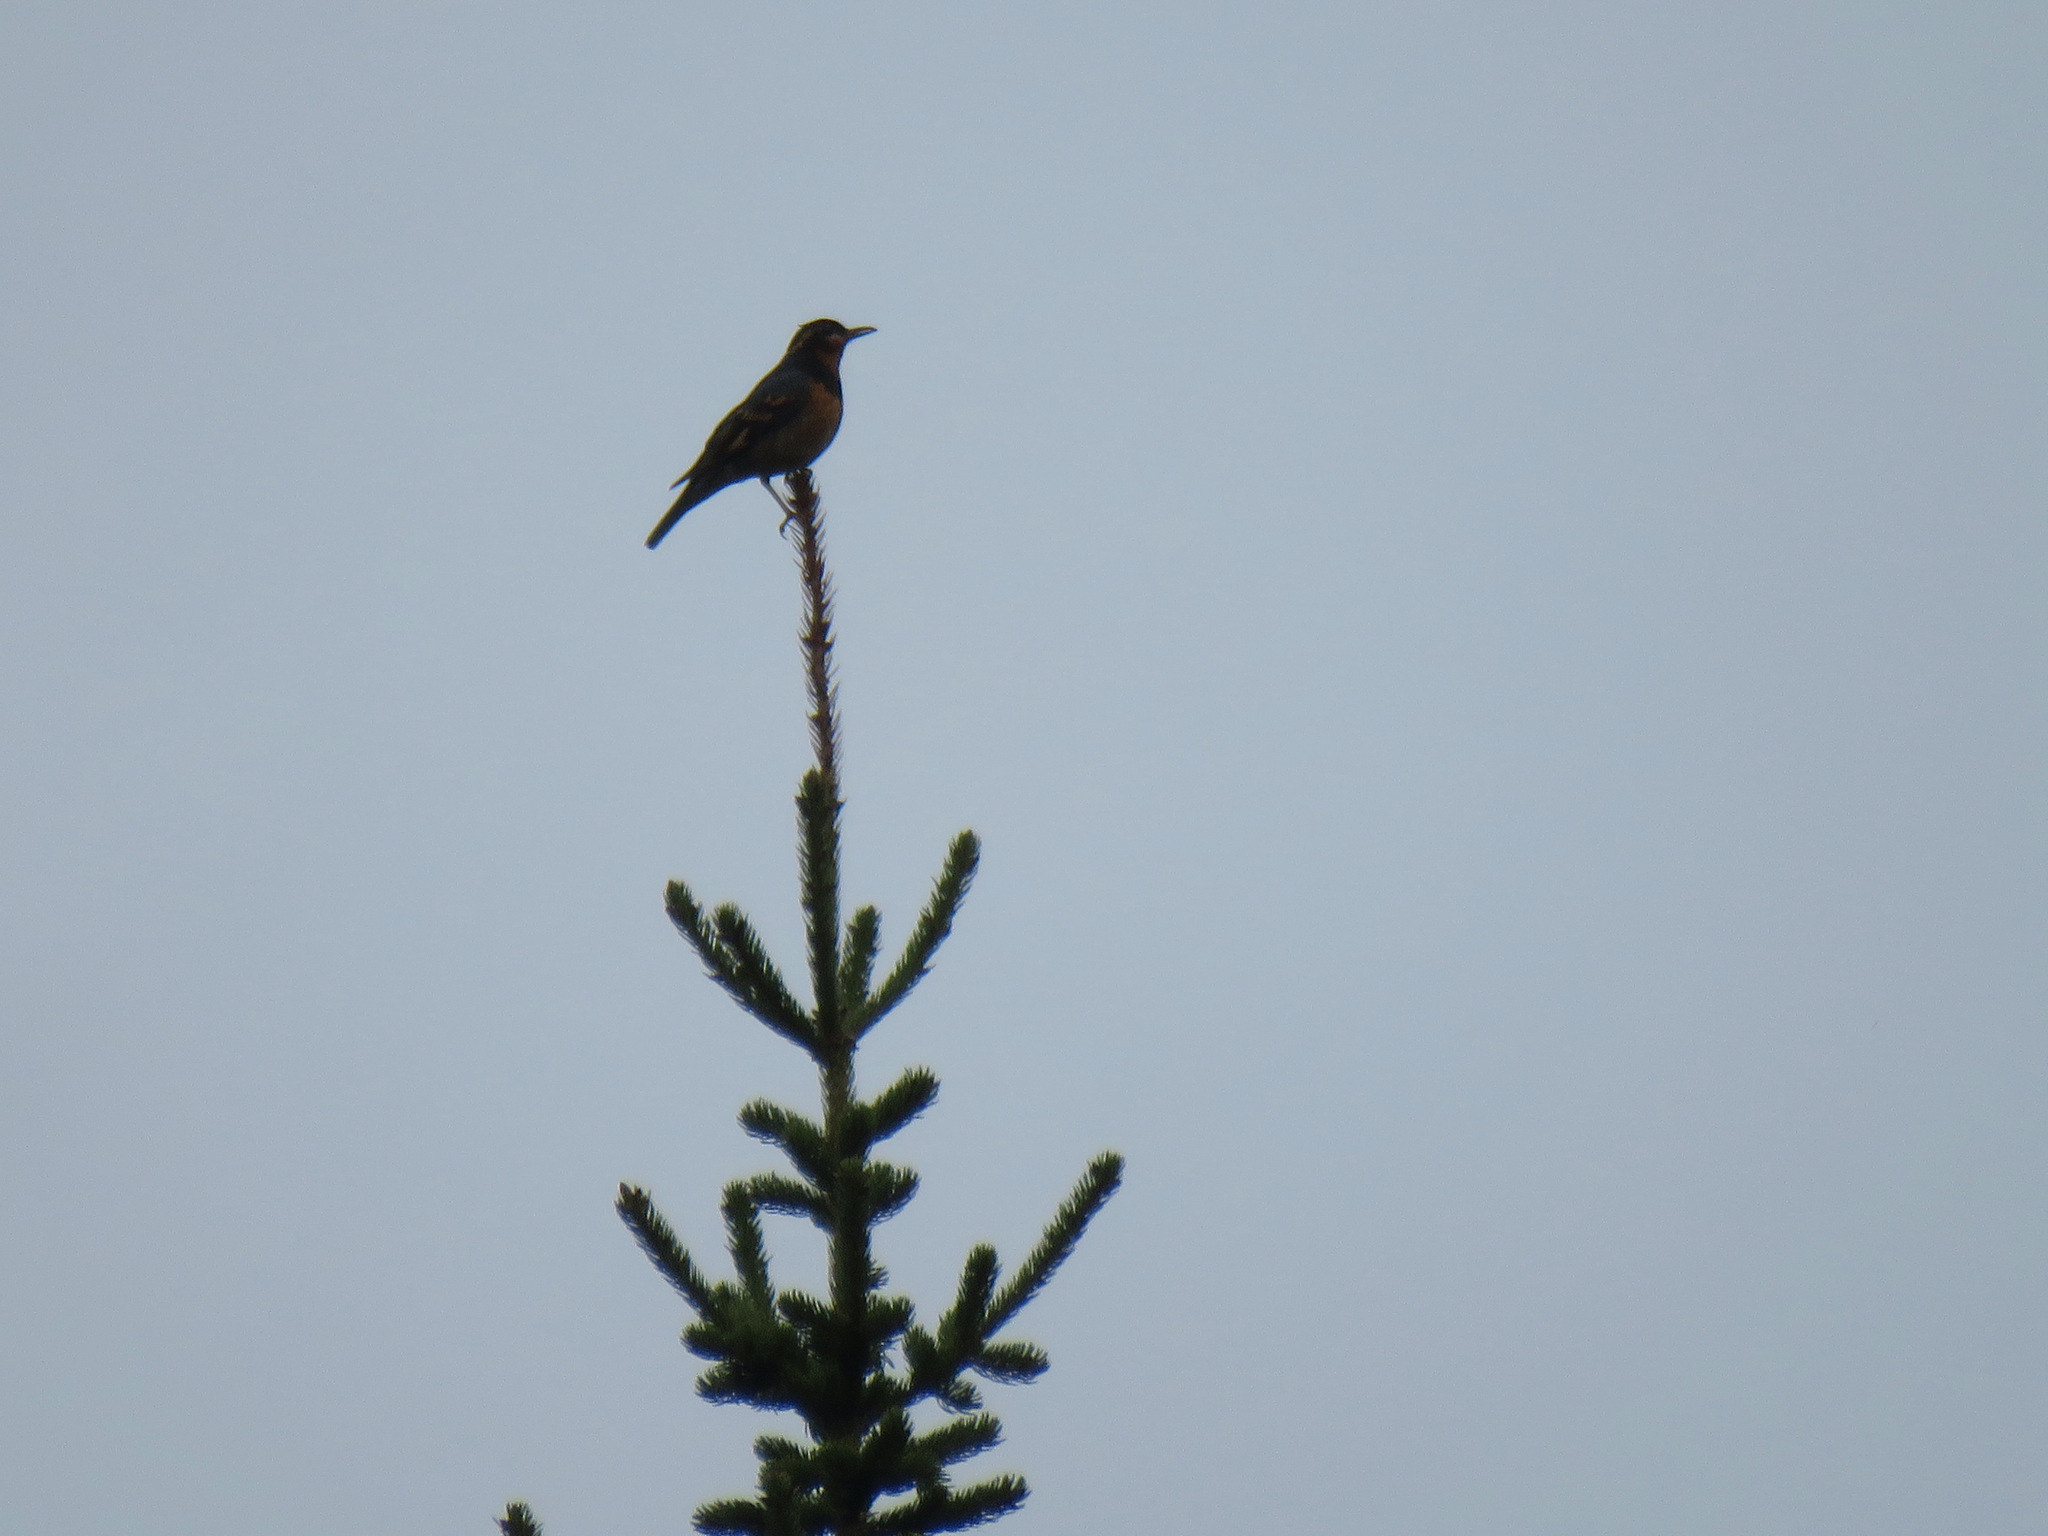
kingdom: Animalia
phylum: Chordata
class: Aves
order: Passeriformes
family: Turdidae
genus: Ixoreus
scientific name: Ixoreus naevius
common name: Varied thrush
